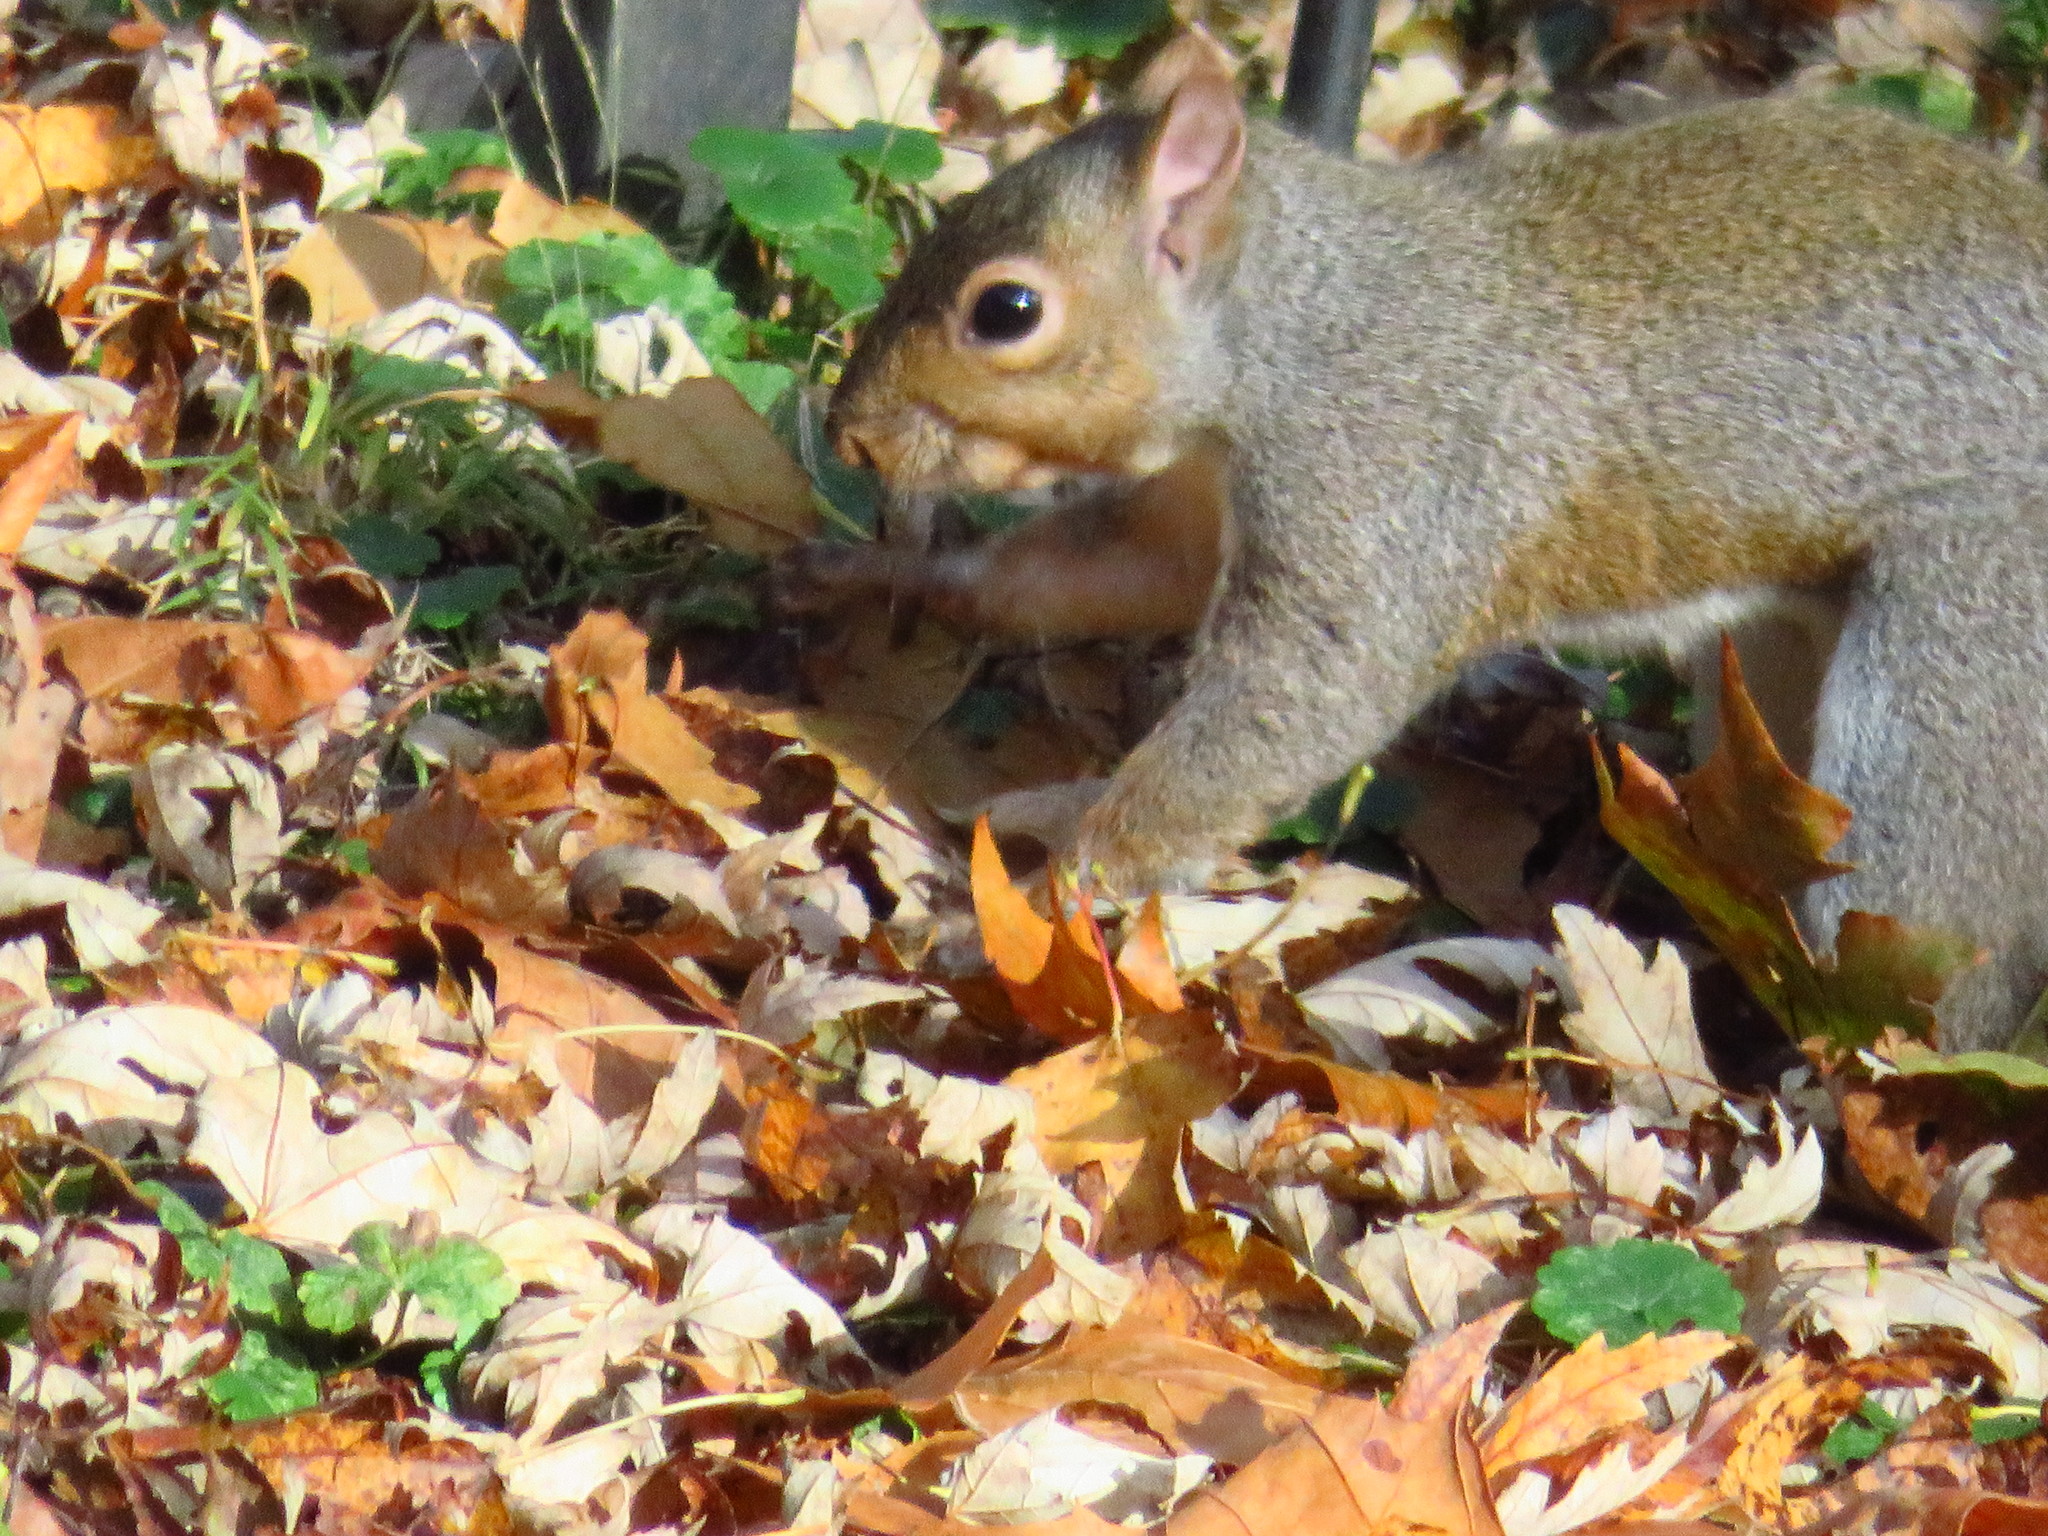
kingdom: Animalia
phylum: Chordata
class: Mammalia
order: Rodentia
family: Sciuridae
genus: Sciurus
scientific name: Sciurus carolinensis
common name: Eastern gray squirrel
